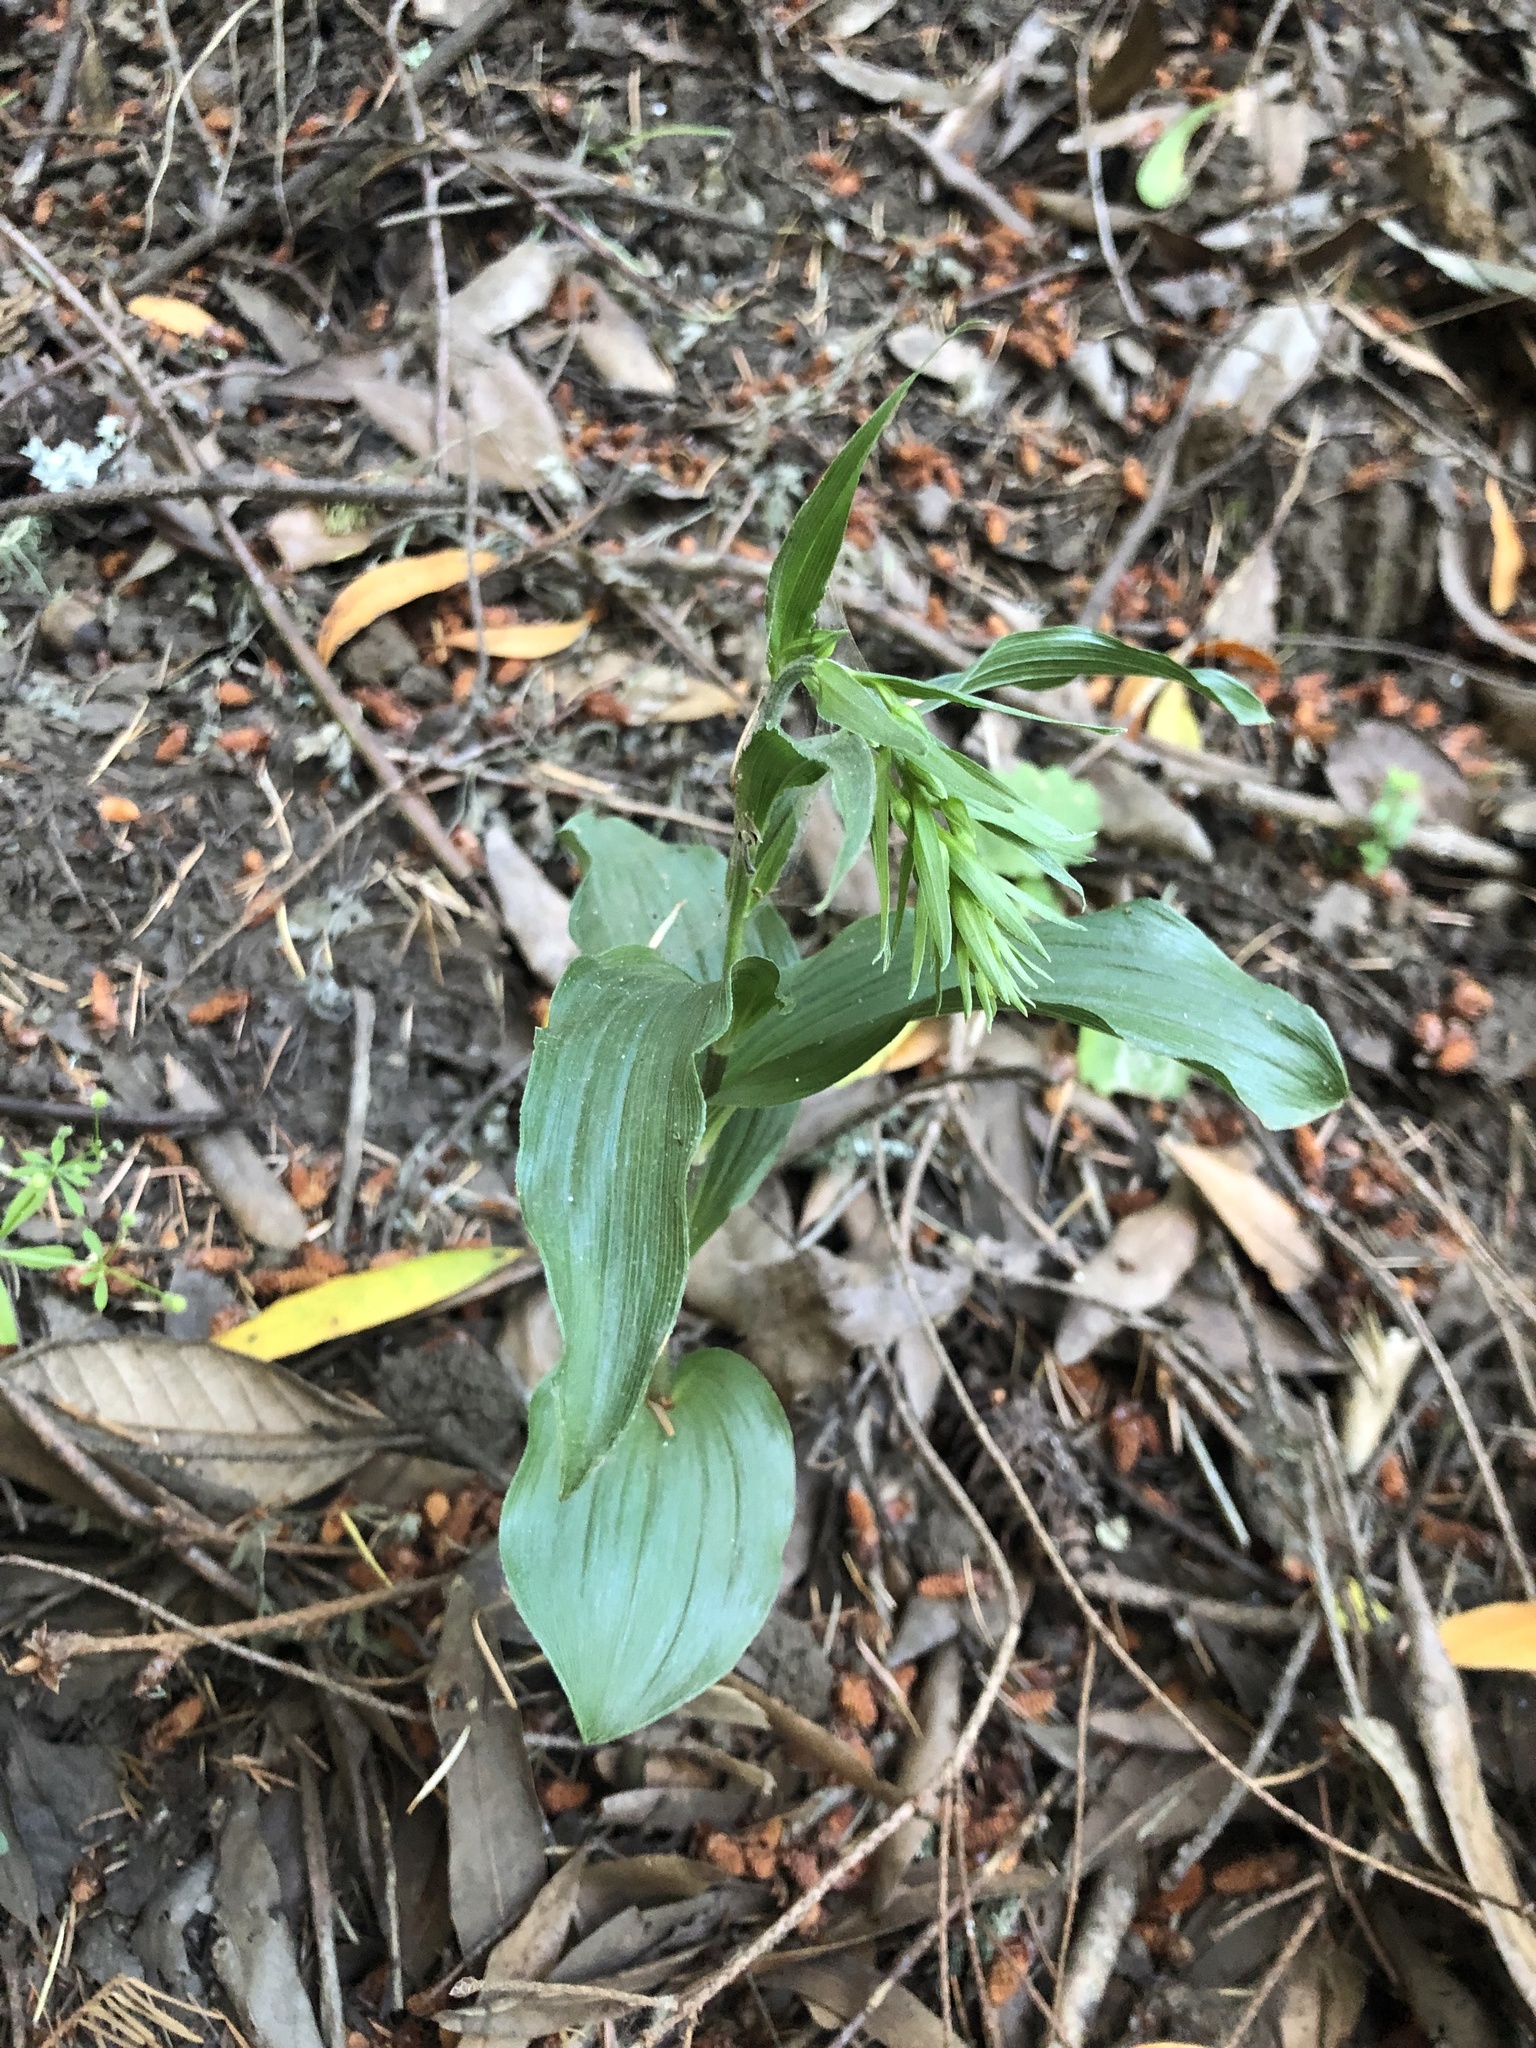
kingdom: Plantae
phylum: Tracheophyta
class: Liliopsida
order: Asparagales
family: Orchidaceae
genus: Epipactis
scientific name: Epipactis helleborine
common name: Broad-leaved helleborine
